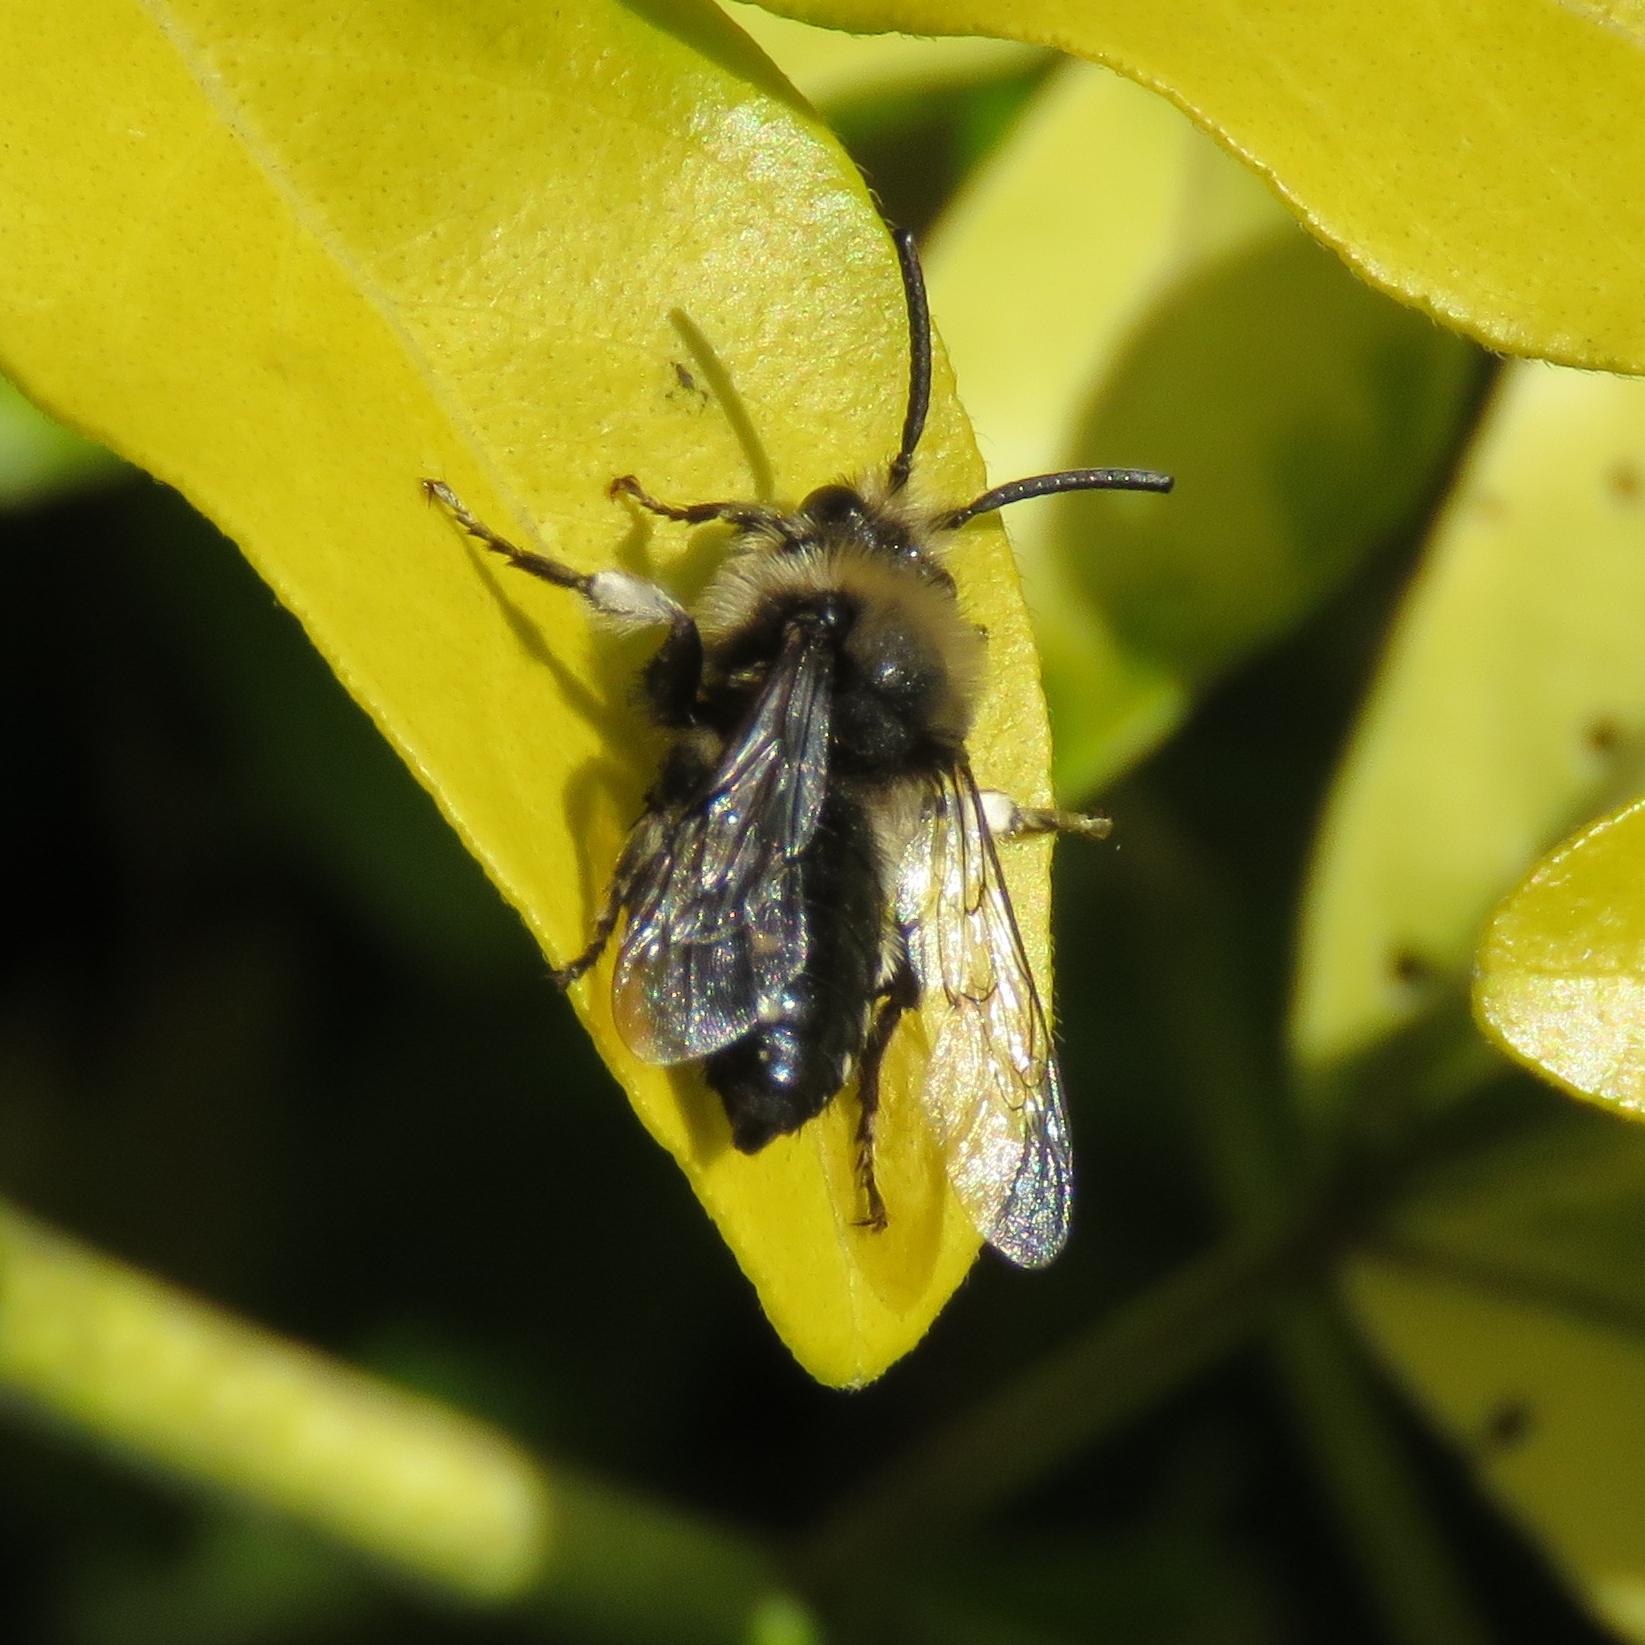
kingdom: Animalia
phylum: Arthropoda
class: Insecta
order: Hymenoptera
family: Apidae
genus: Melecta
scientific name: Melecta albifrons
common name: Common mourning bee
